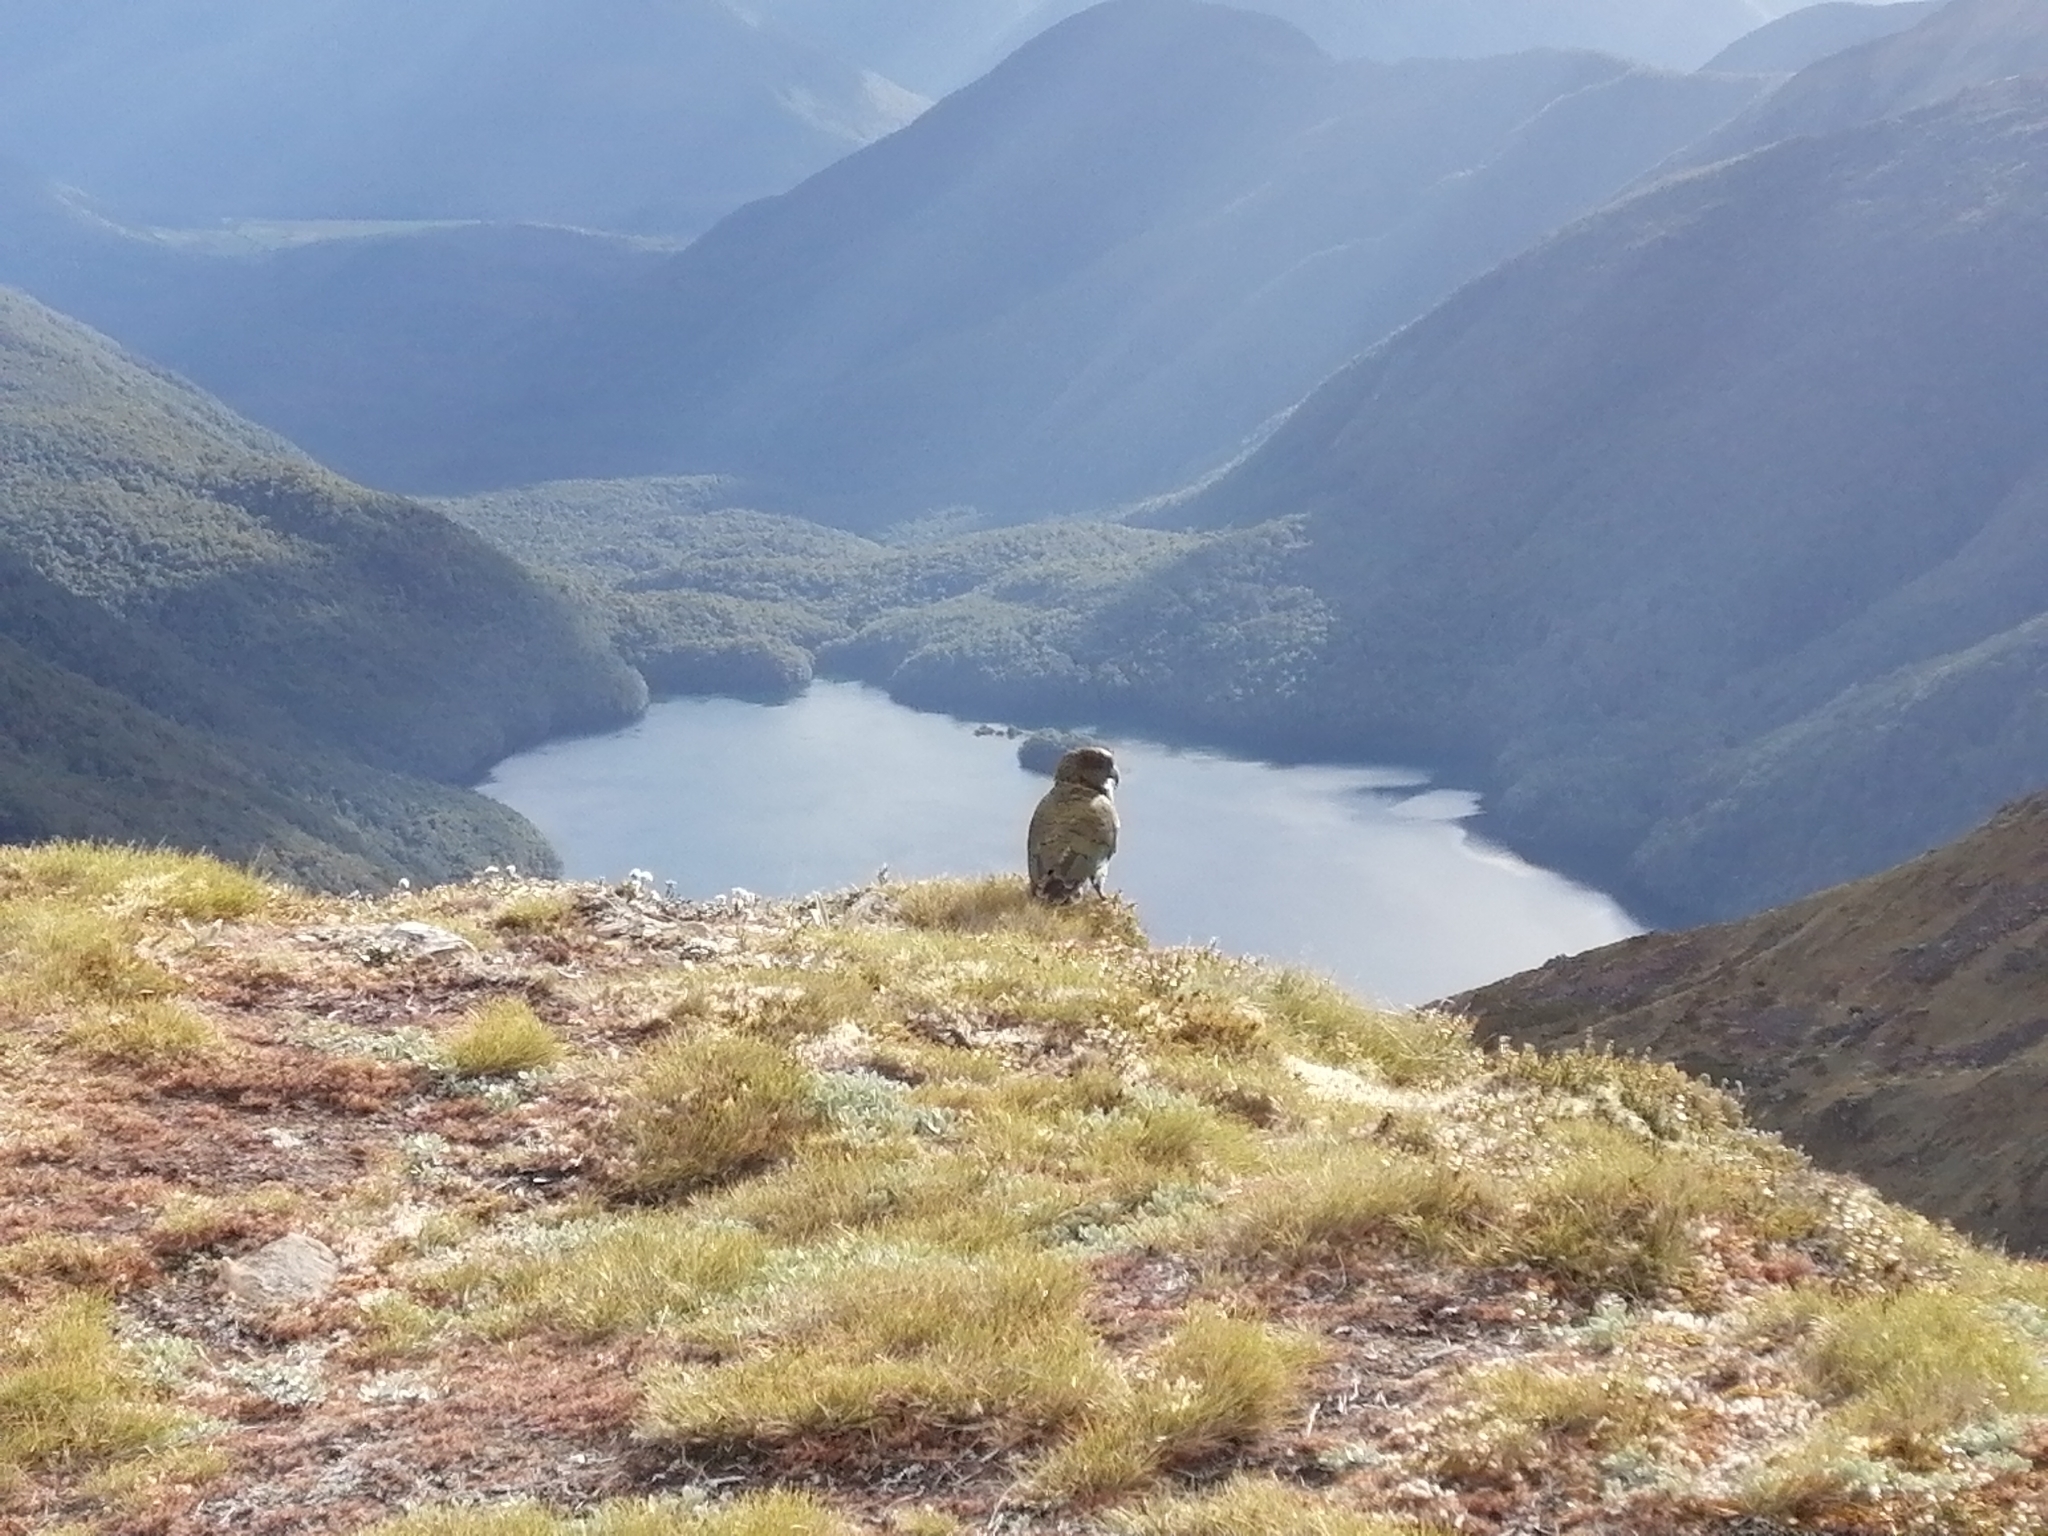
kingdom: Animalia
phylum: Chordata
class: Aves
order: Psittaciformes
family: Psittacidae
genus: Nestor
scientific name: Nestor notabilis
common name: Kea
